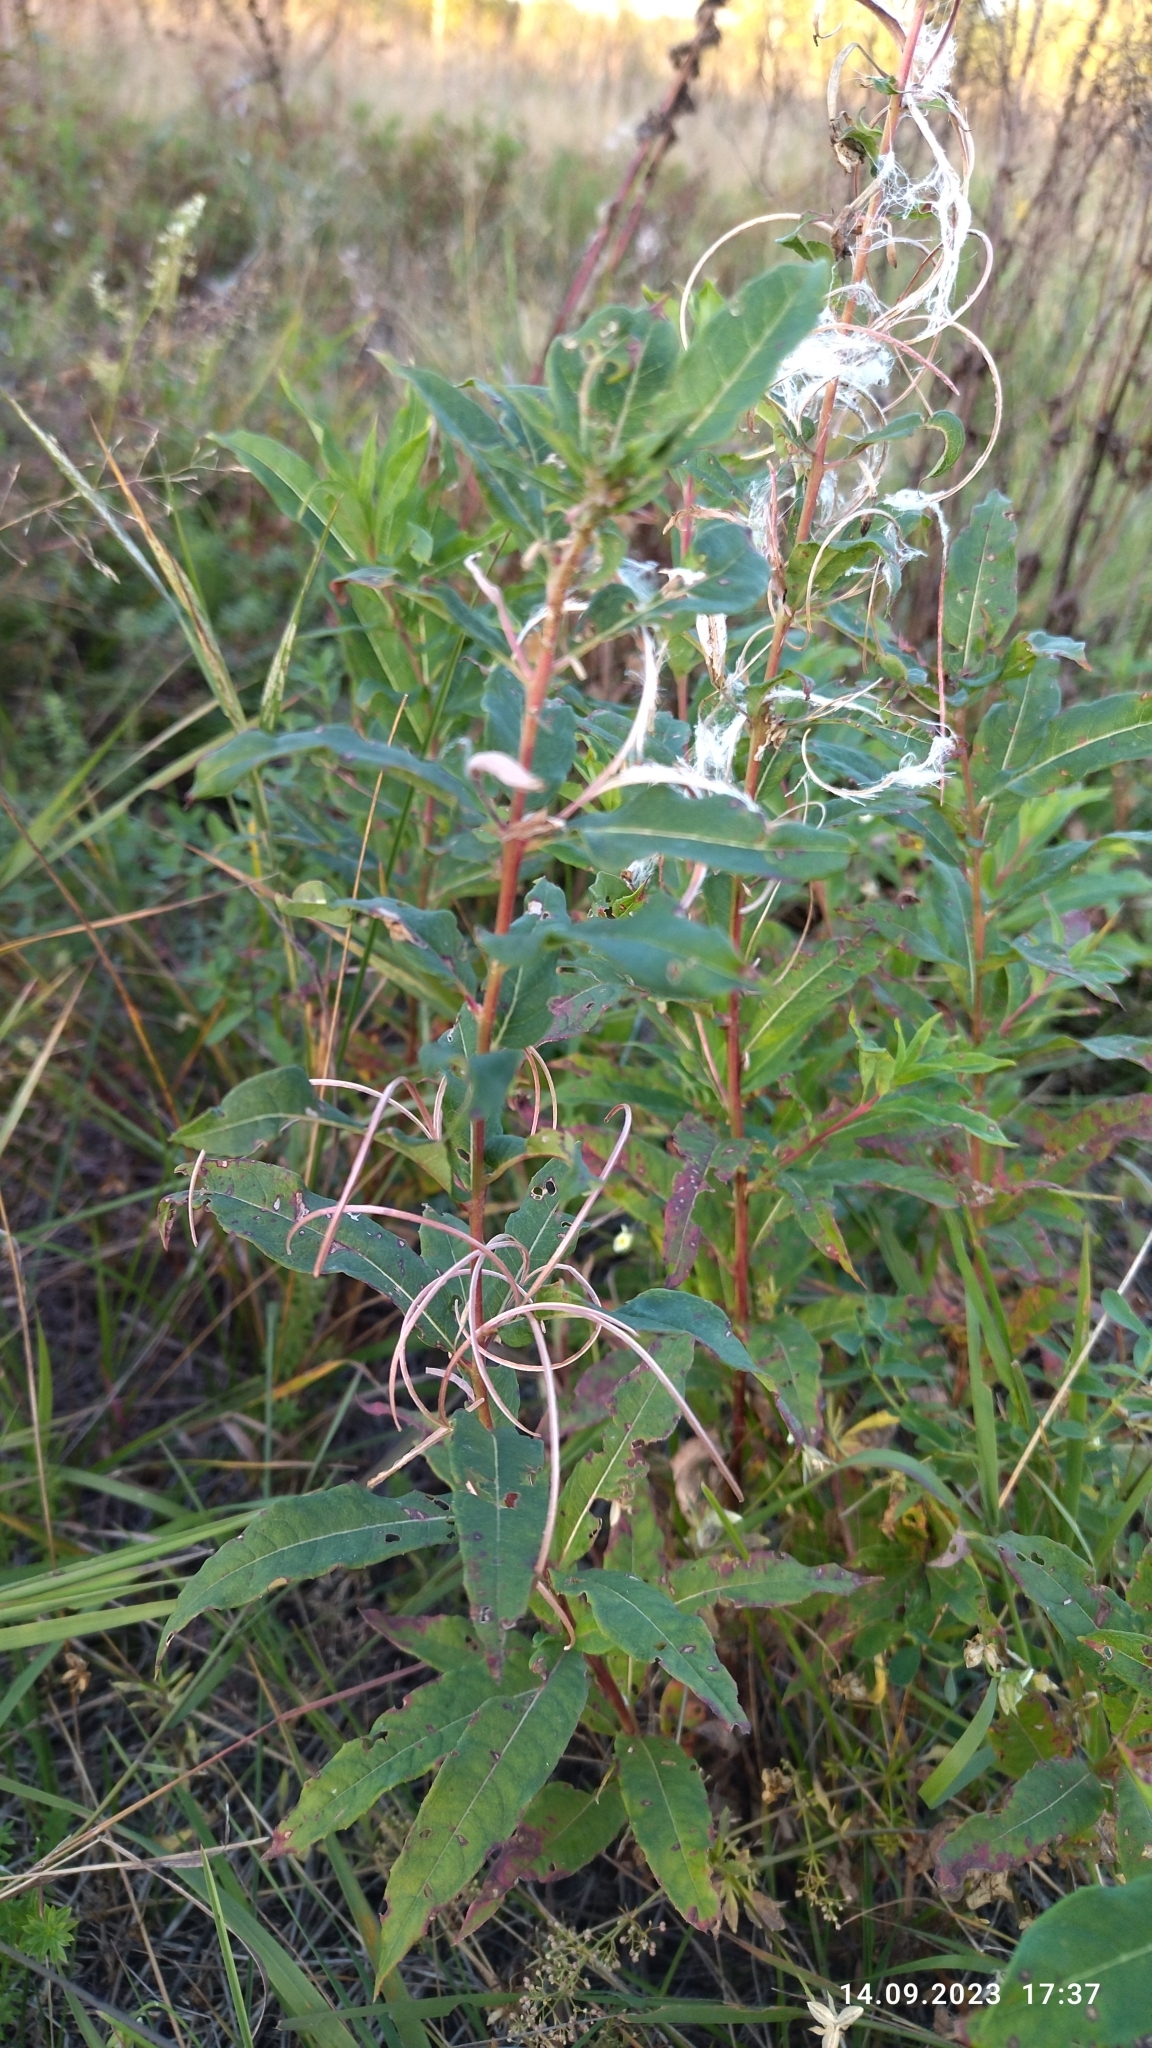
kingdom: Plantae
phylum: Tracheophyta
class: Magnoliopsida
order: Myrtales
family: Onagraceae
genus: Chamaenerion
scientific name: Chamaenerion angustifolium
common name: Fireweed
